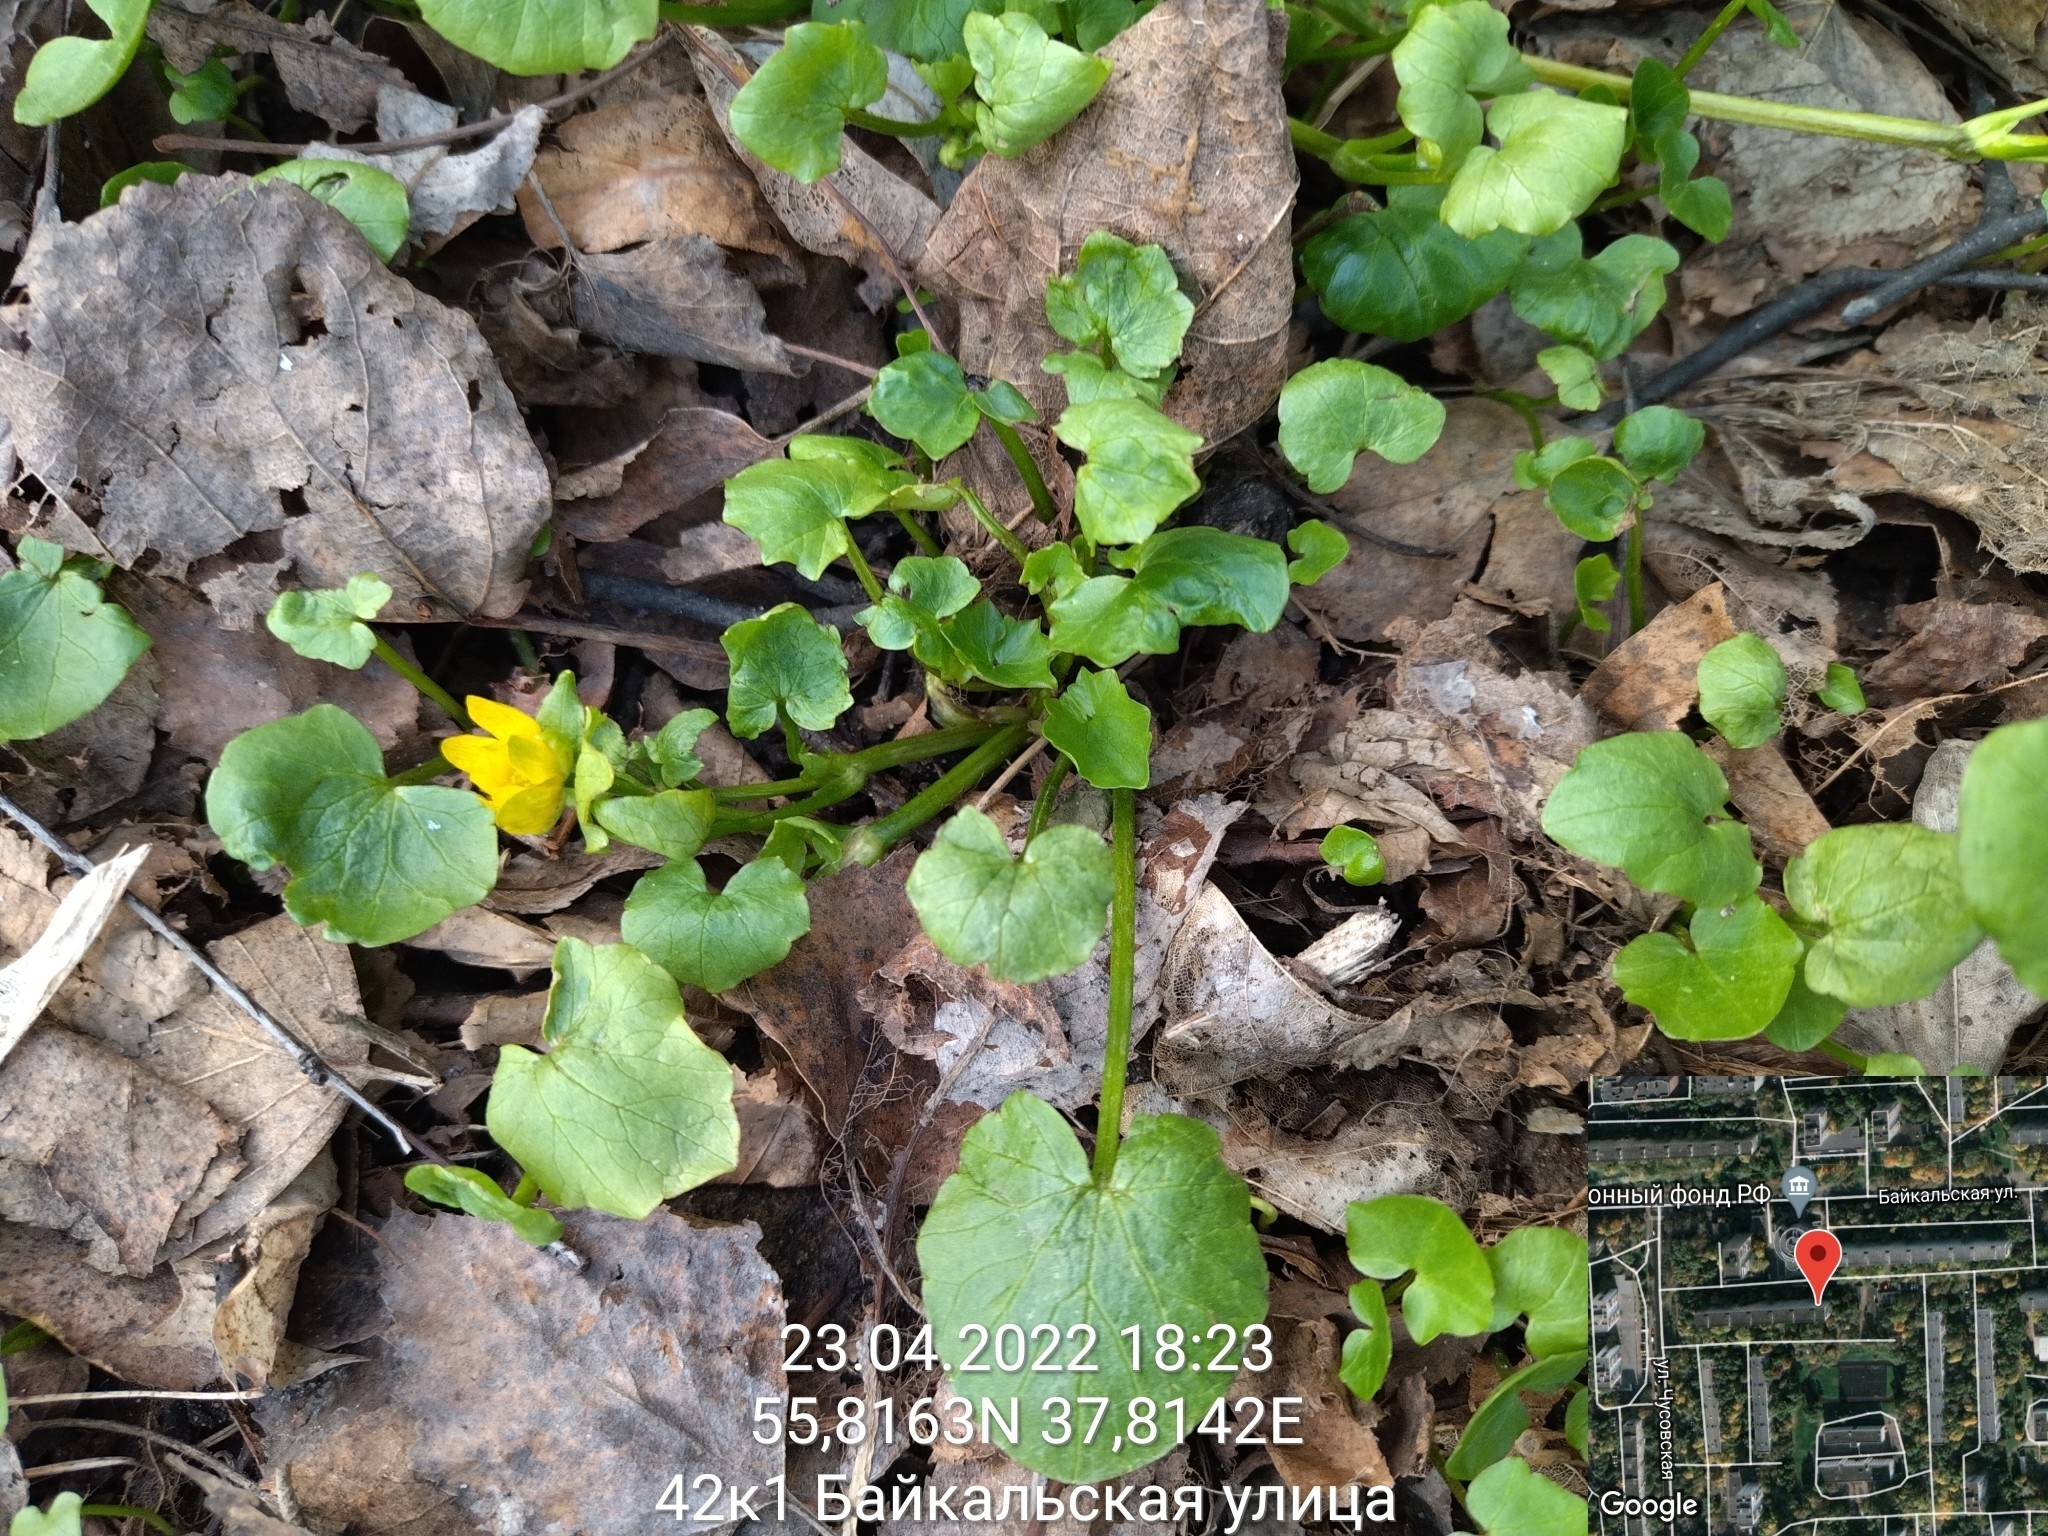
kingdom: Plantae
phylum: Tracheophyta
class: Magnoliopsida
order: Ranunculales
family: Ranunculaceae
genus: Ficaria
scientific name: Ficaria verna
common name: Lesser celandine
